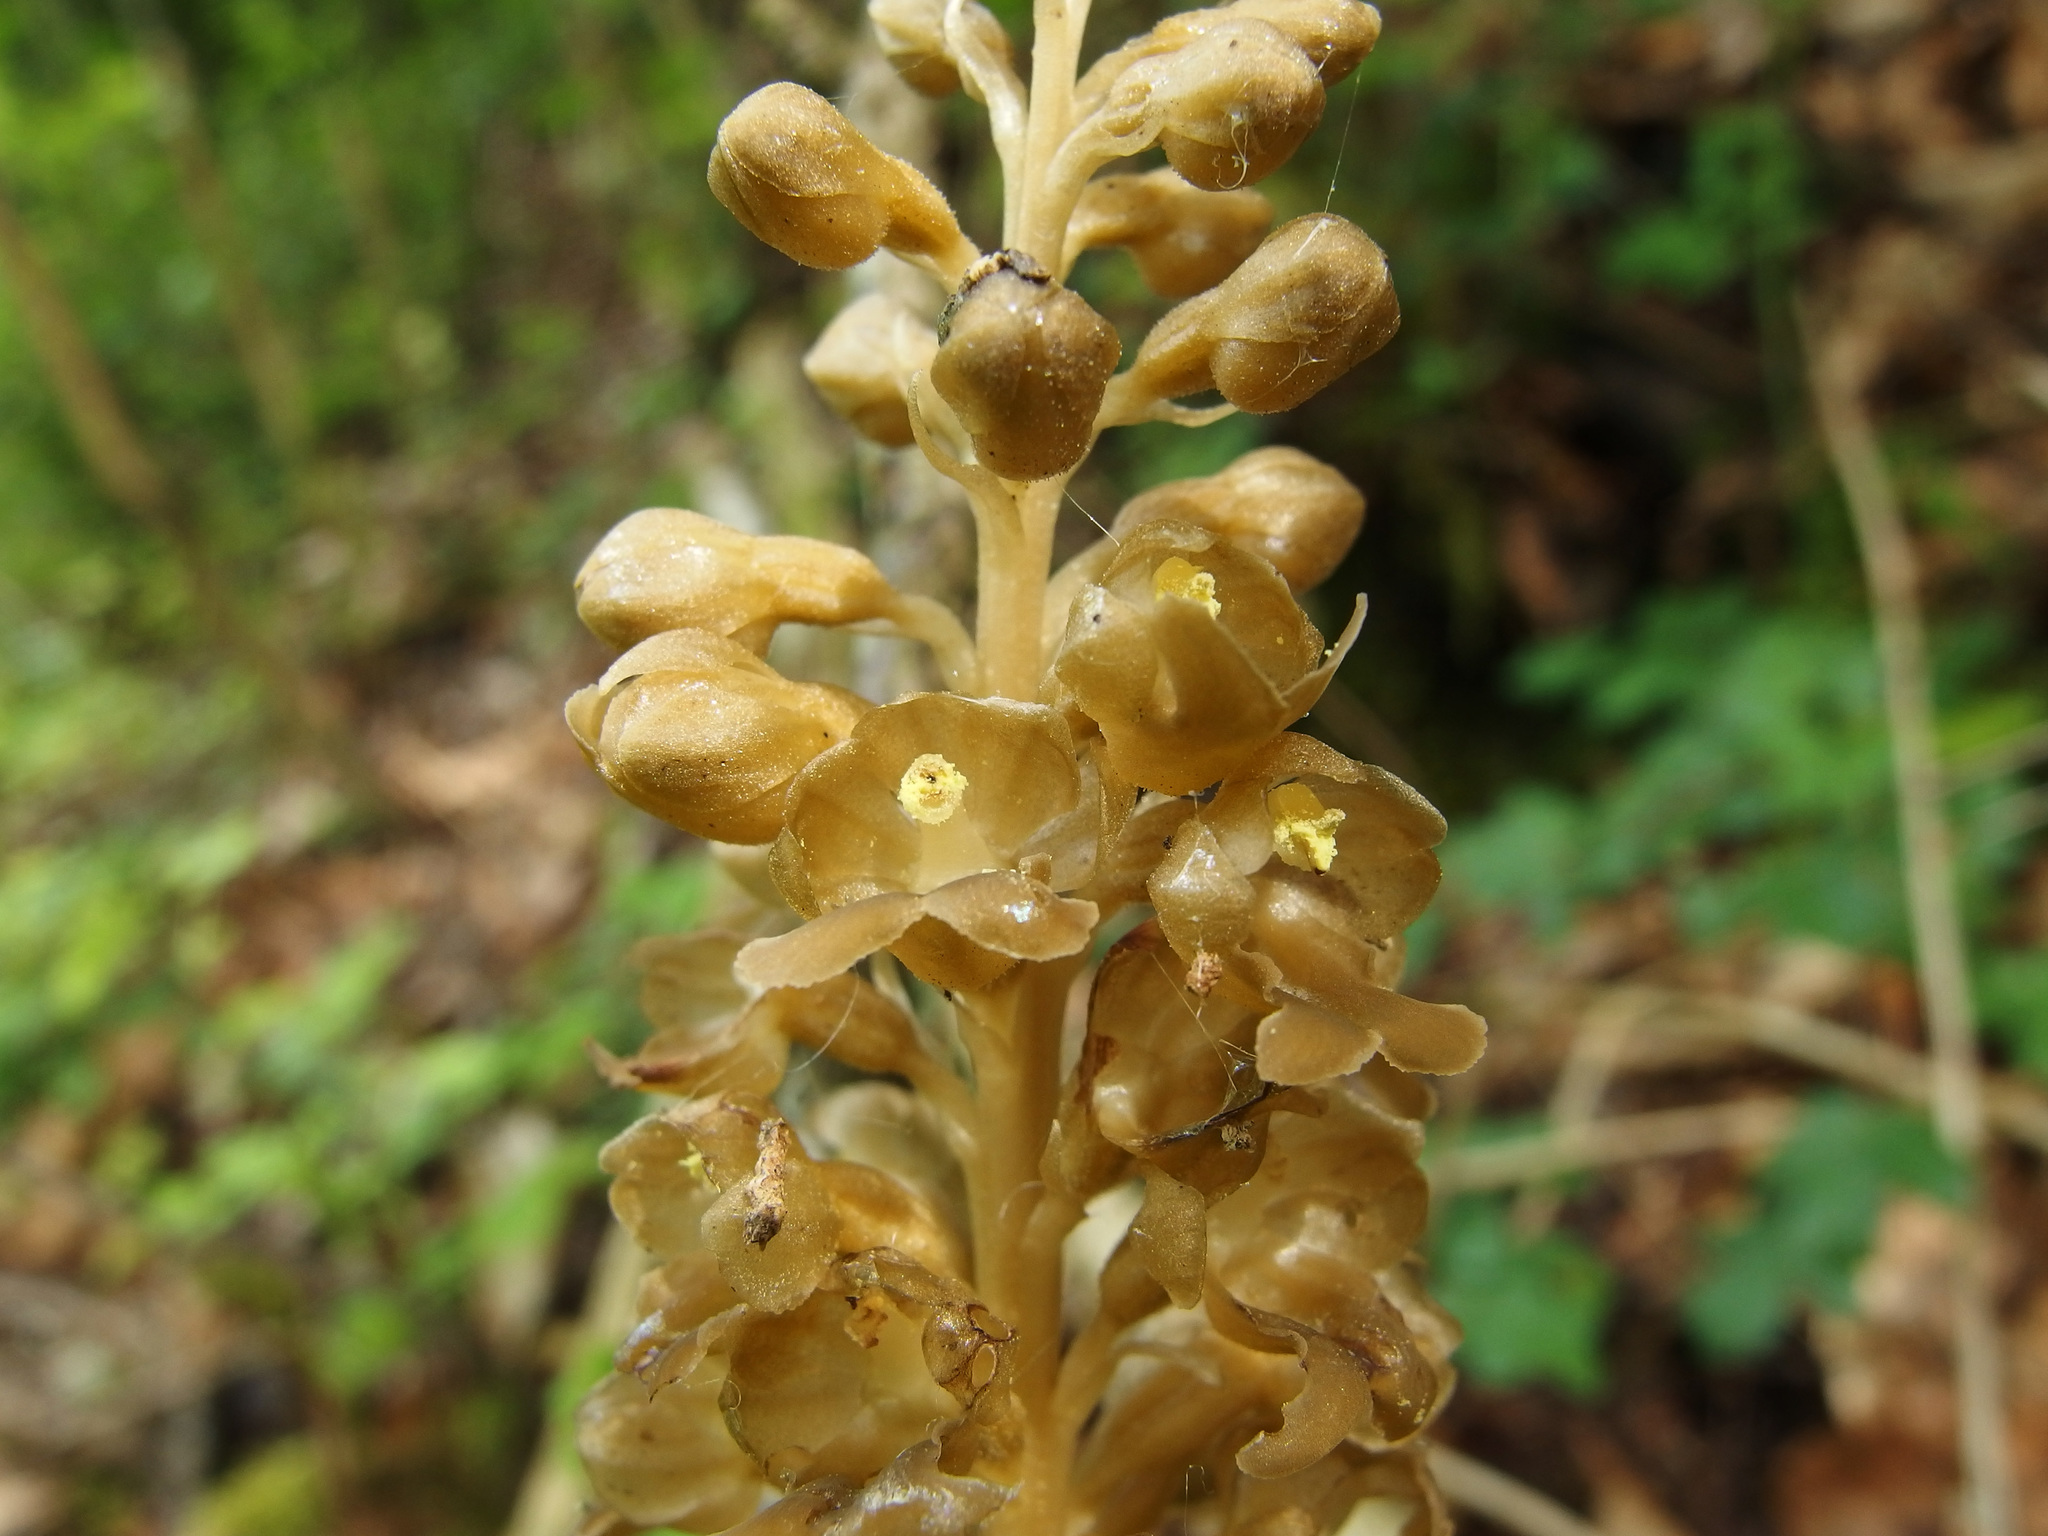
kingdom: Plantae
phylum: Tracheophyta
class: Liliopsida
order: Asparagales
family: Orchidaceae
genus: Neottia
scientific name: Neottia nidus-avis
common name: Bird's-nest orchid
